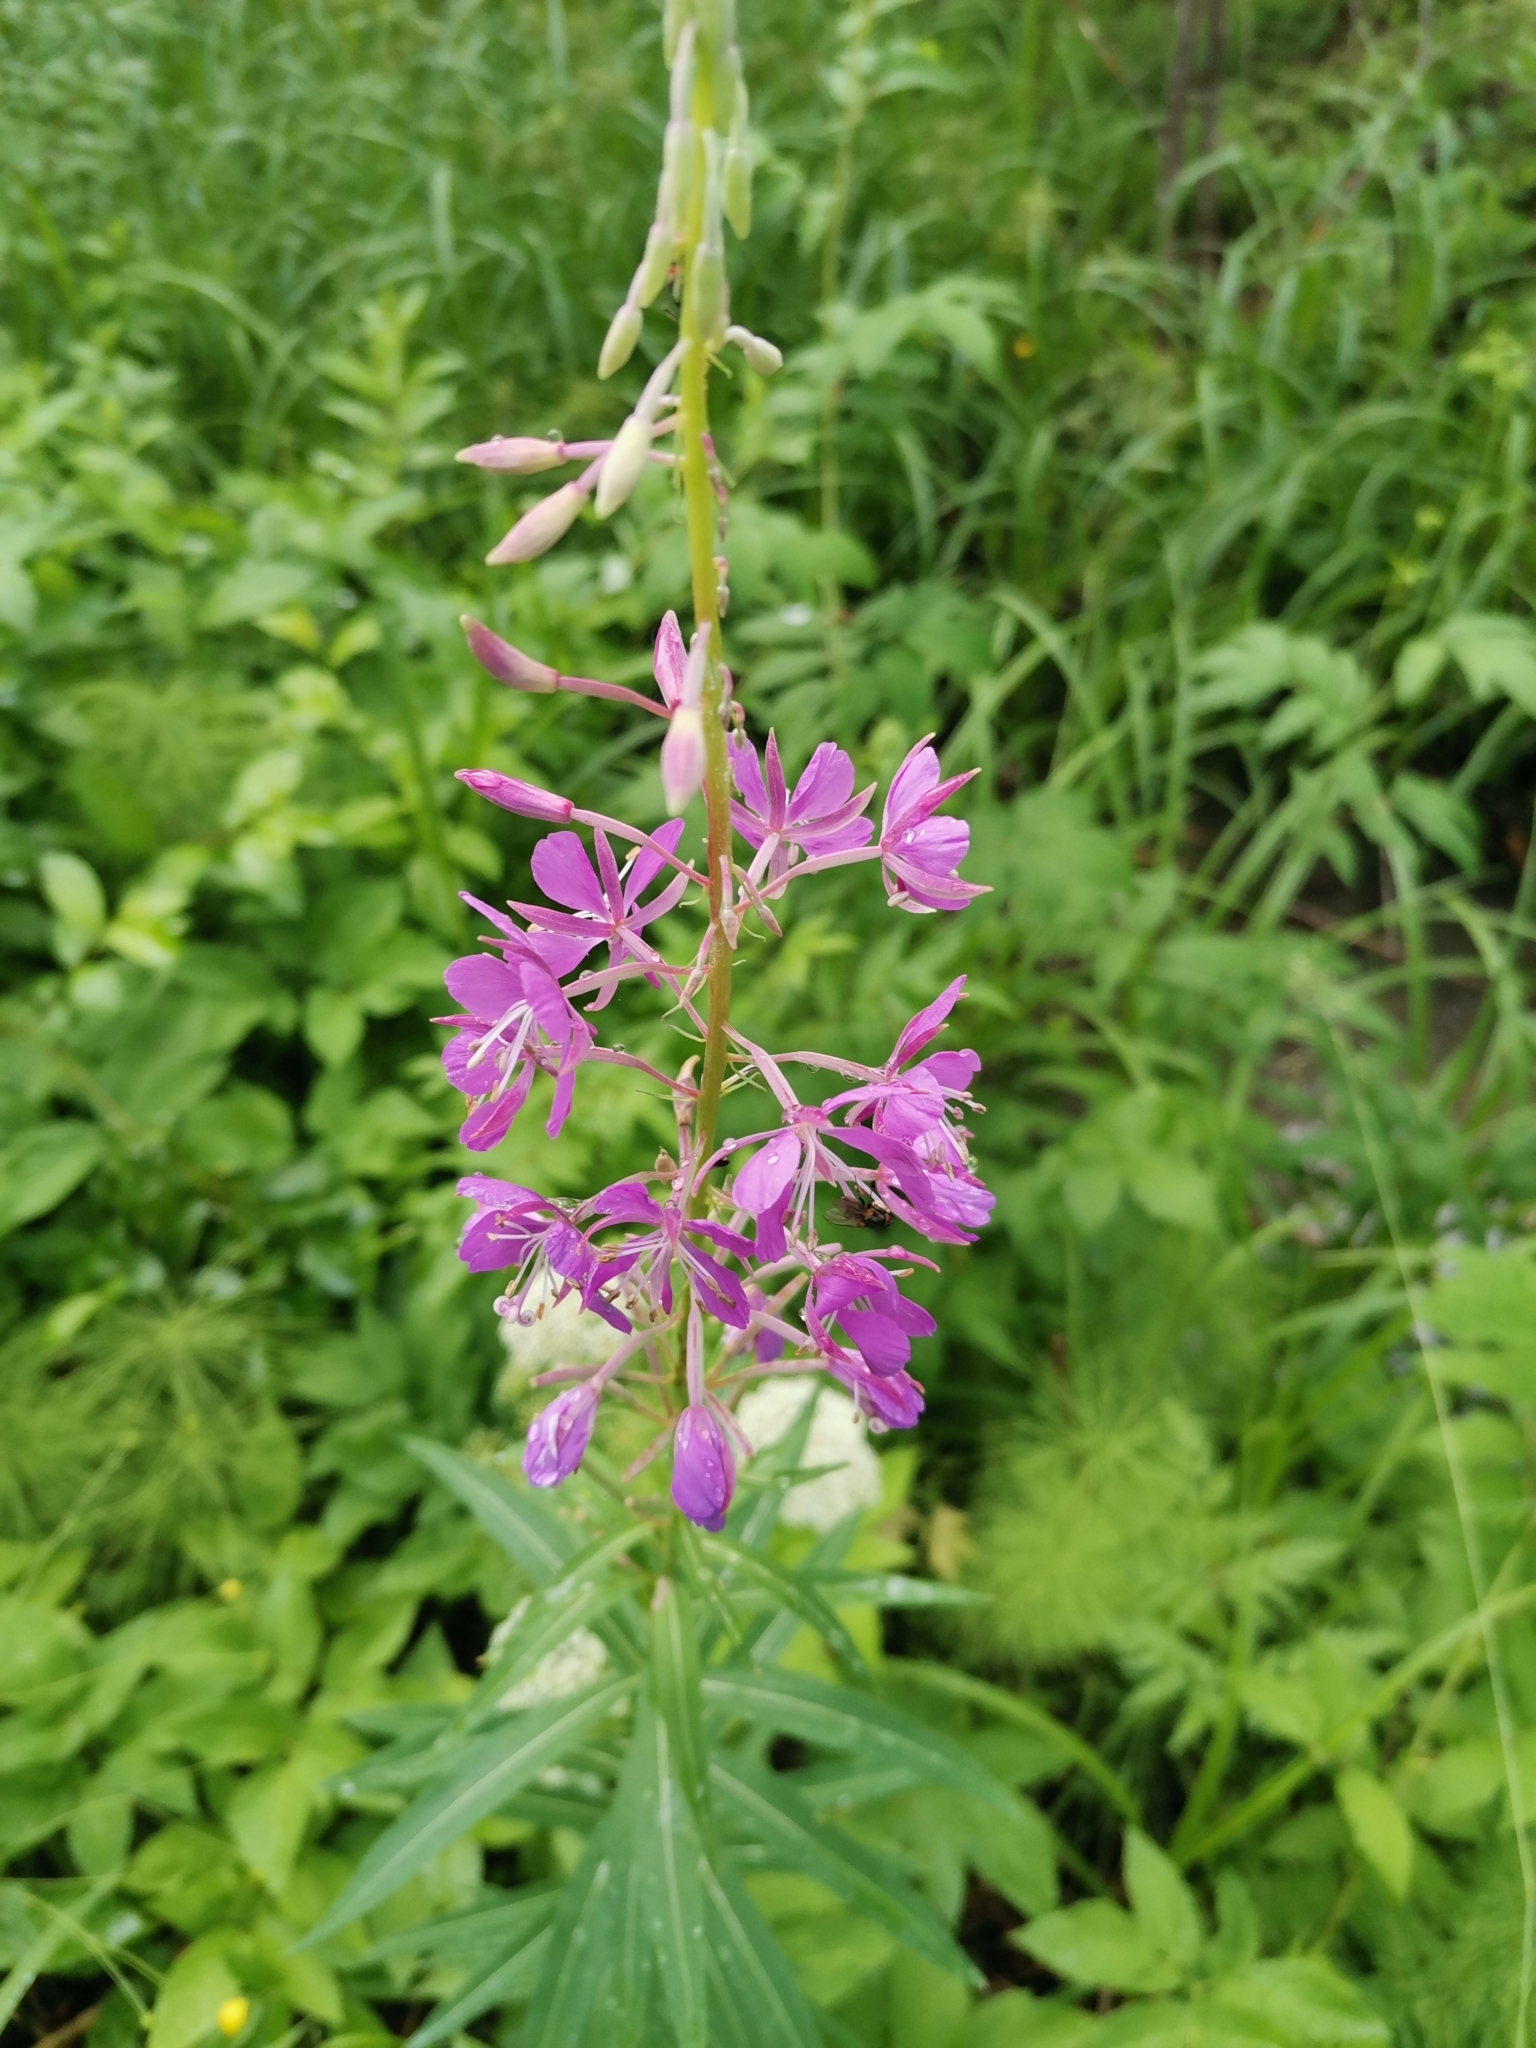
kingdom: Plantae
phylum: Tracheophyta
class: Magnoliopsida
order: Myrtales
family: Onagraceae
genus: Chamaenerion
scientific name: Chamaenerion angustifolium
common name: Fireweed
